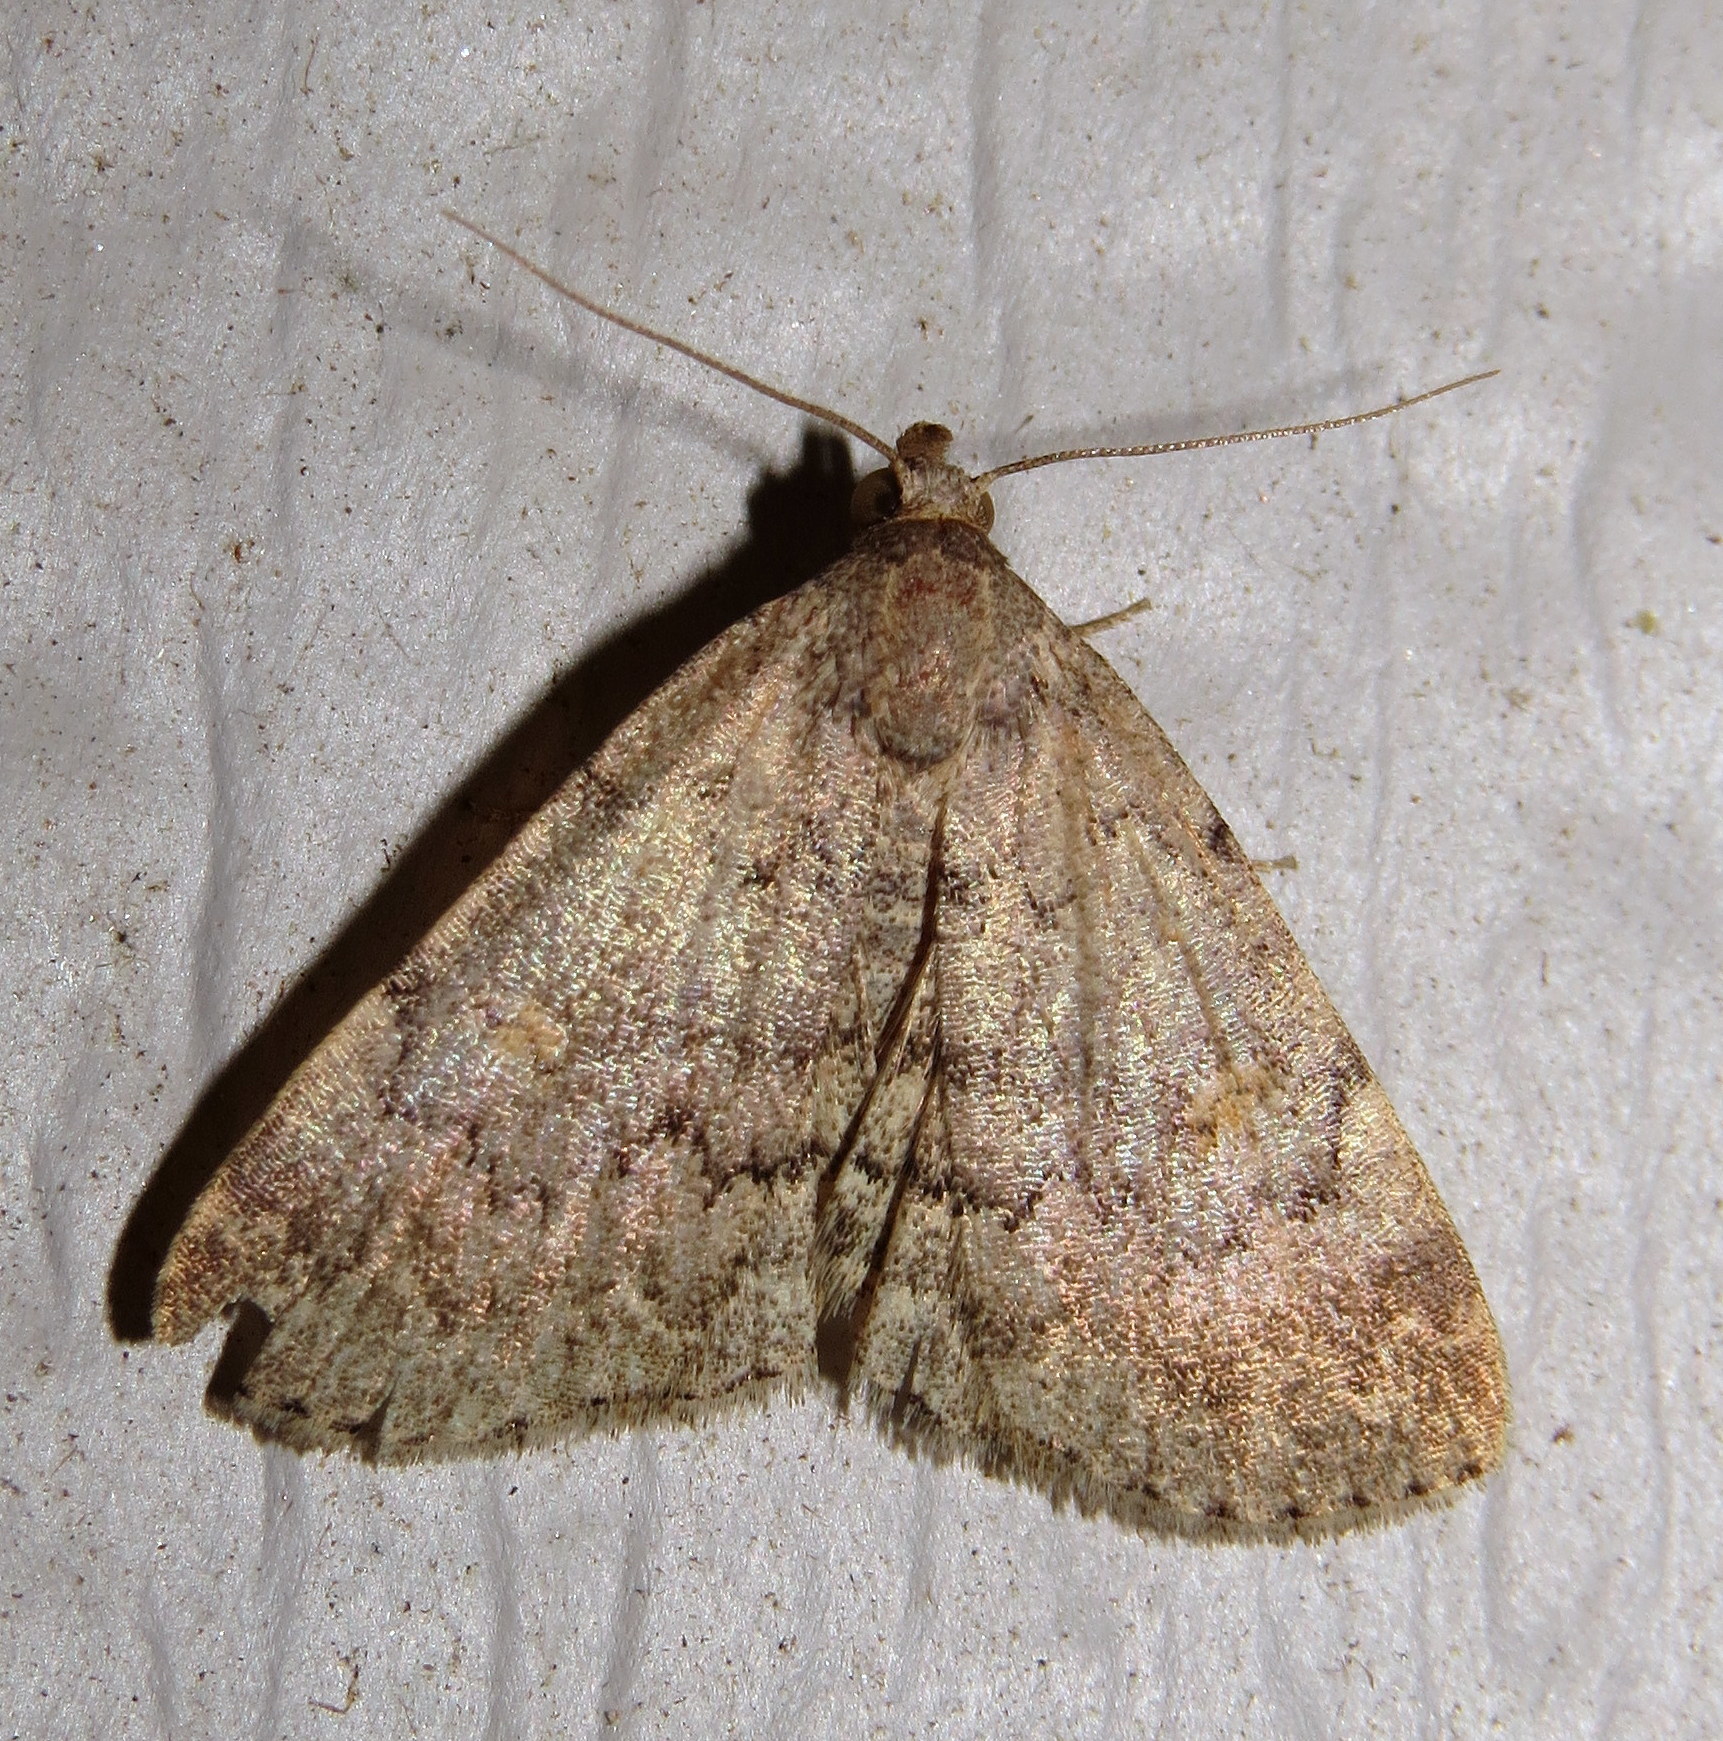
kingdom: Animalia
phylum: Arthropoda
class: Insecta
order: Lepidoptera
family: Erebidae
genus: Idia
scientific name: Idia aemula
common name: Common idia moth
